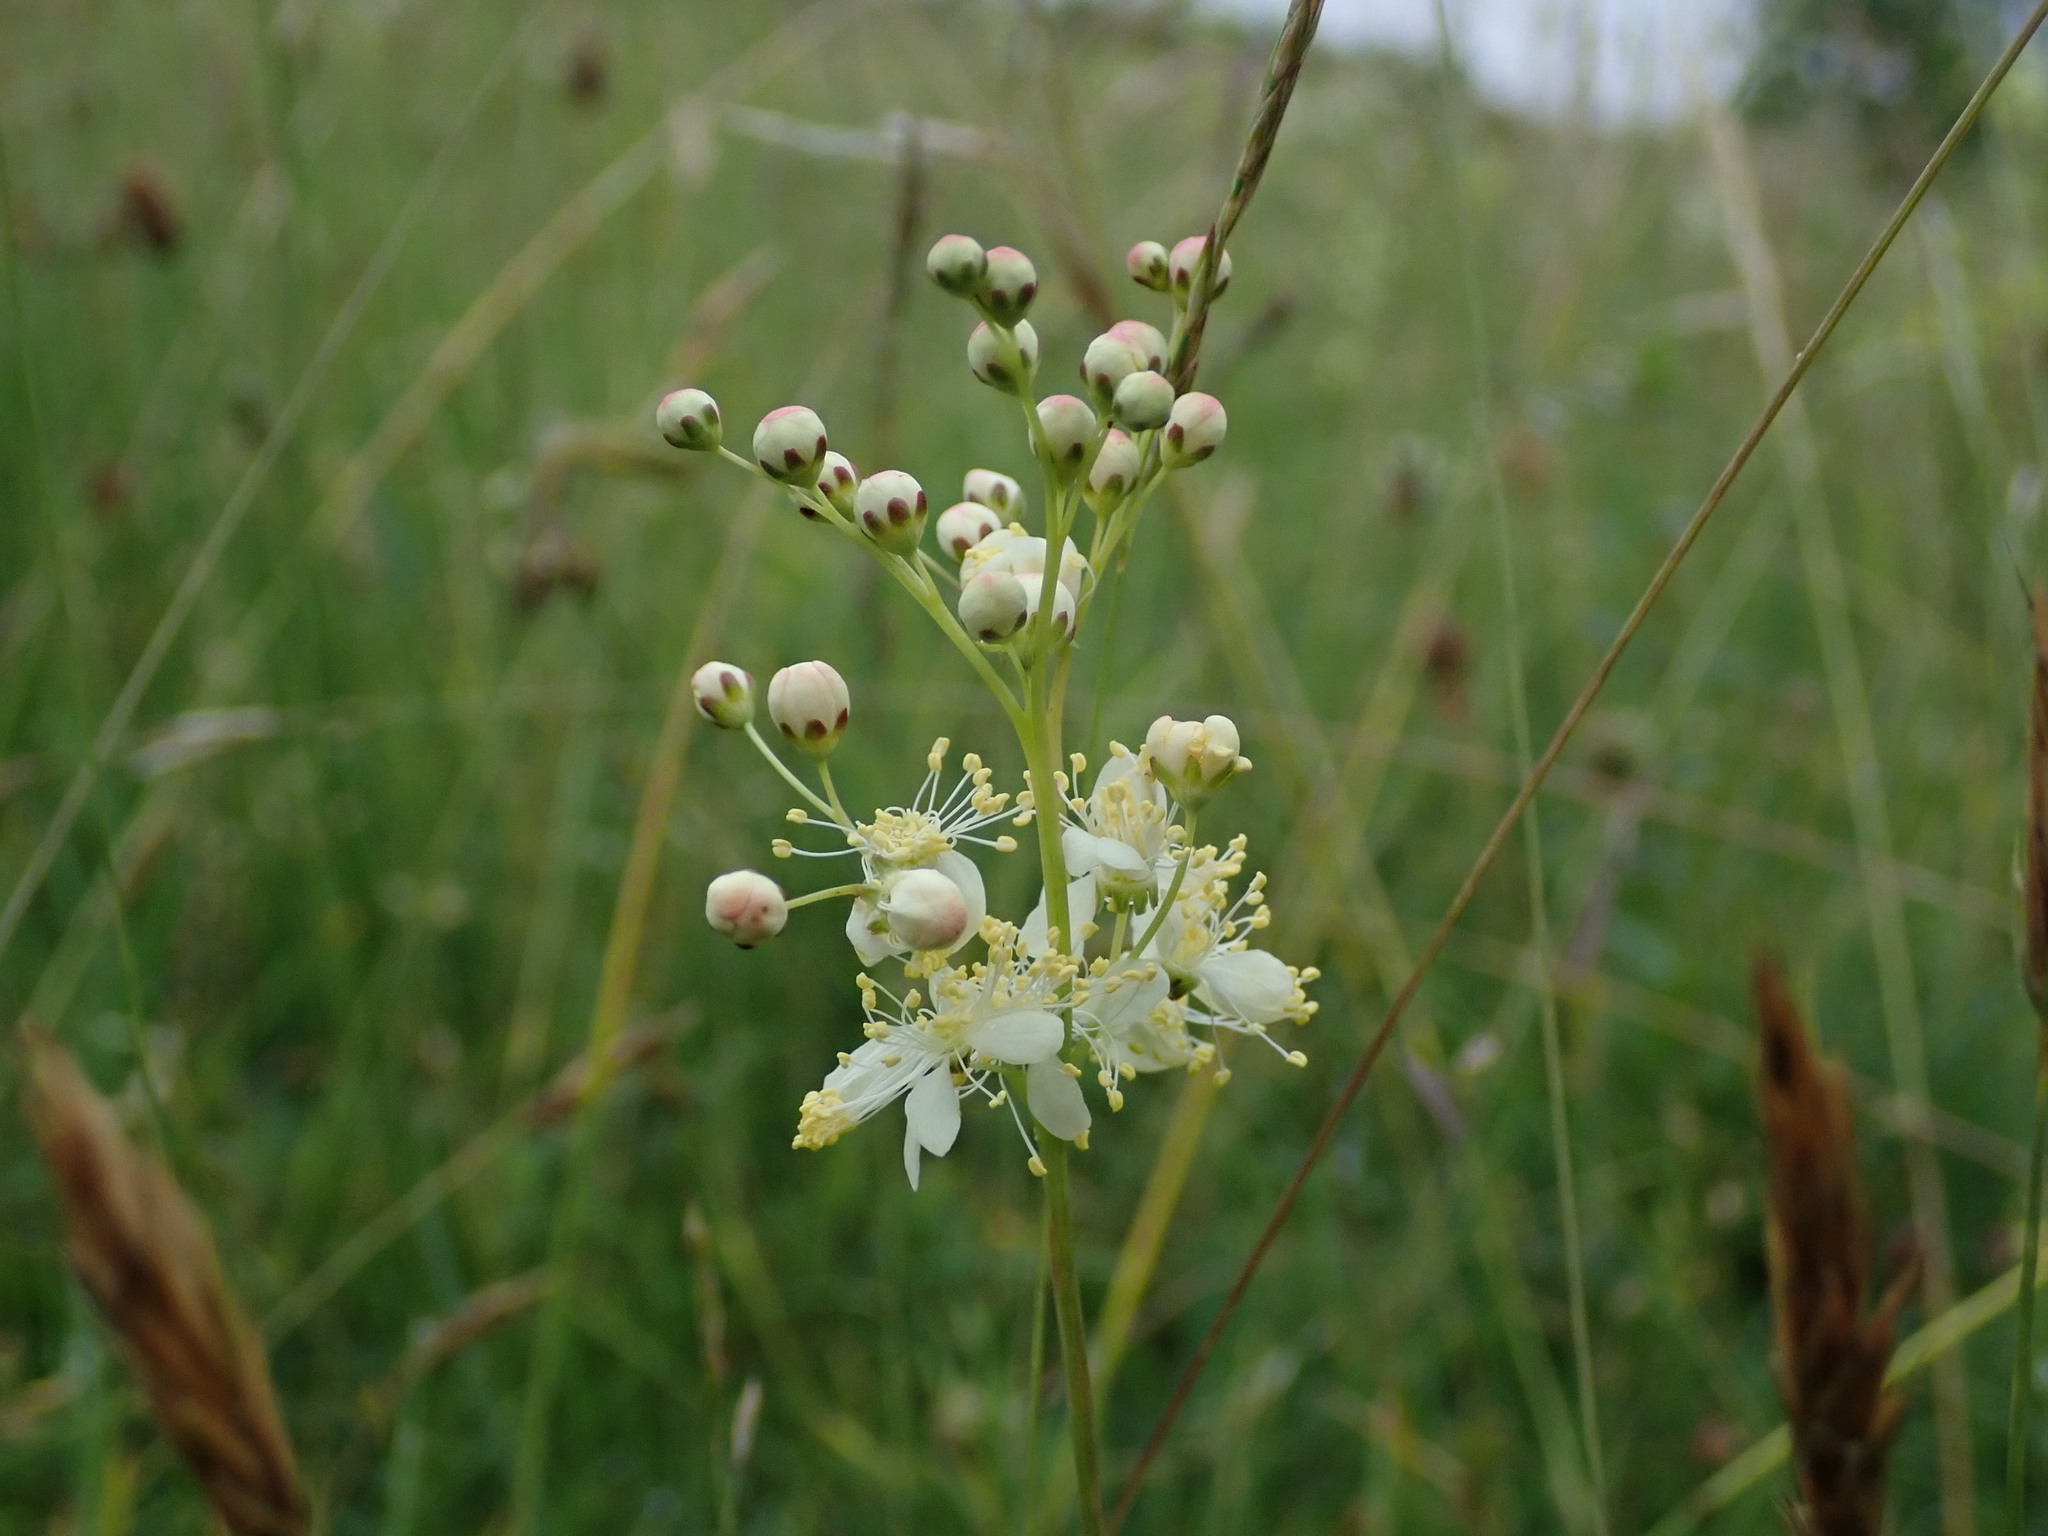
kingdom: Plantae
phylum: Tracheophyta
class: Magnoliopsida
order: Rosales
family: Rosaceae
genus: Filipendula
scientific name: Filipendula vulgaris
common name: Dropwort
